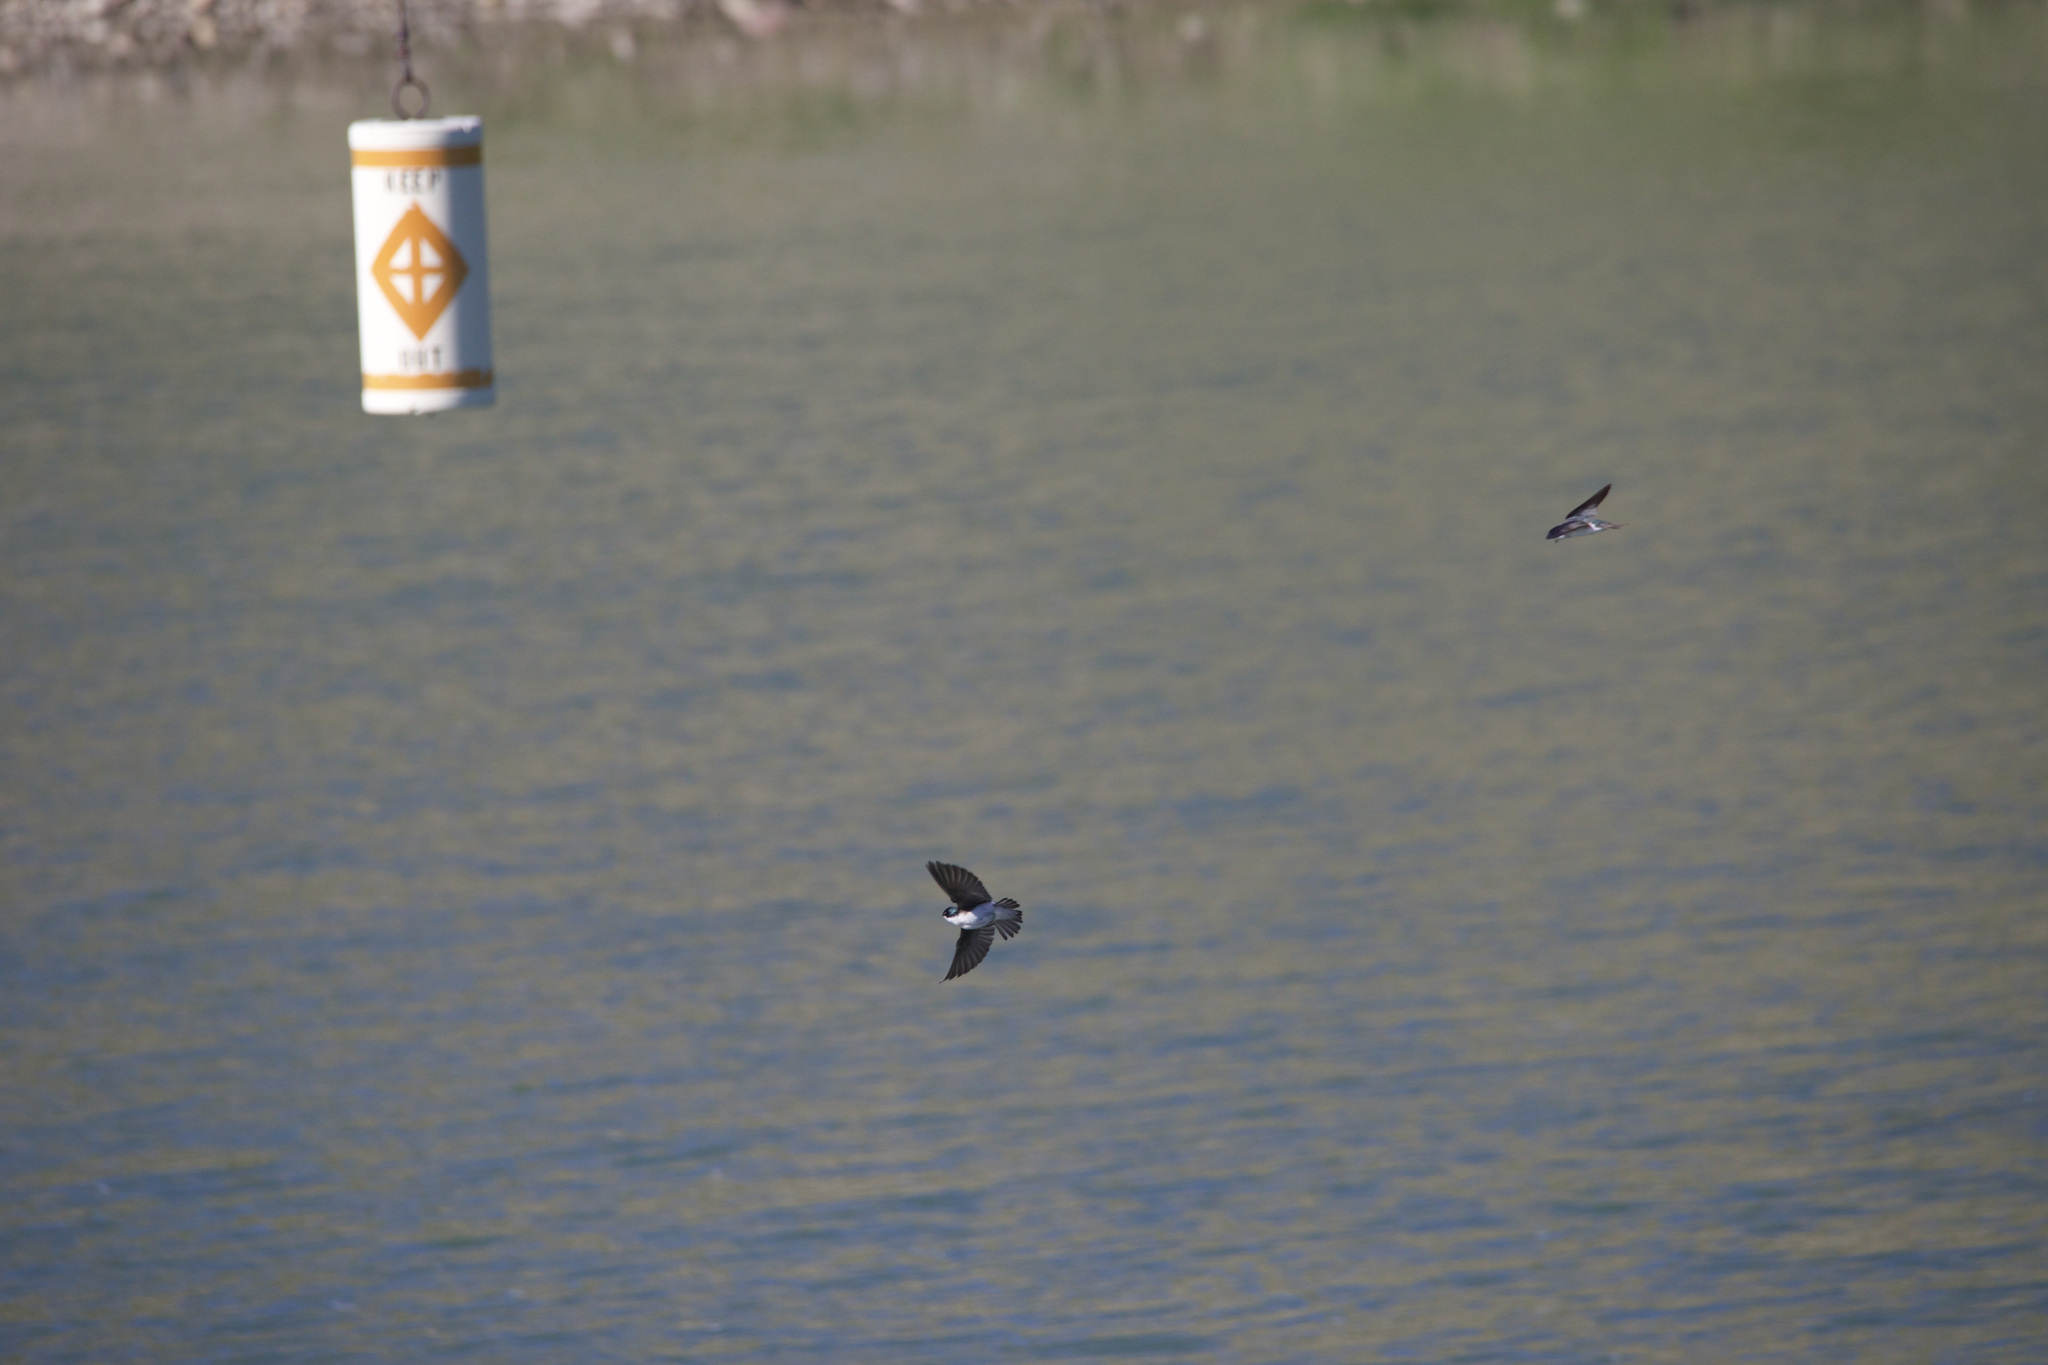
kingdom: Animalia
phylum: Chordata
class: Aves
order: Passeriformes
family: Hirundinidae
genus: Tachycineta
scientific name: Tachycineta bicolor
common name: Tree swallow
